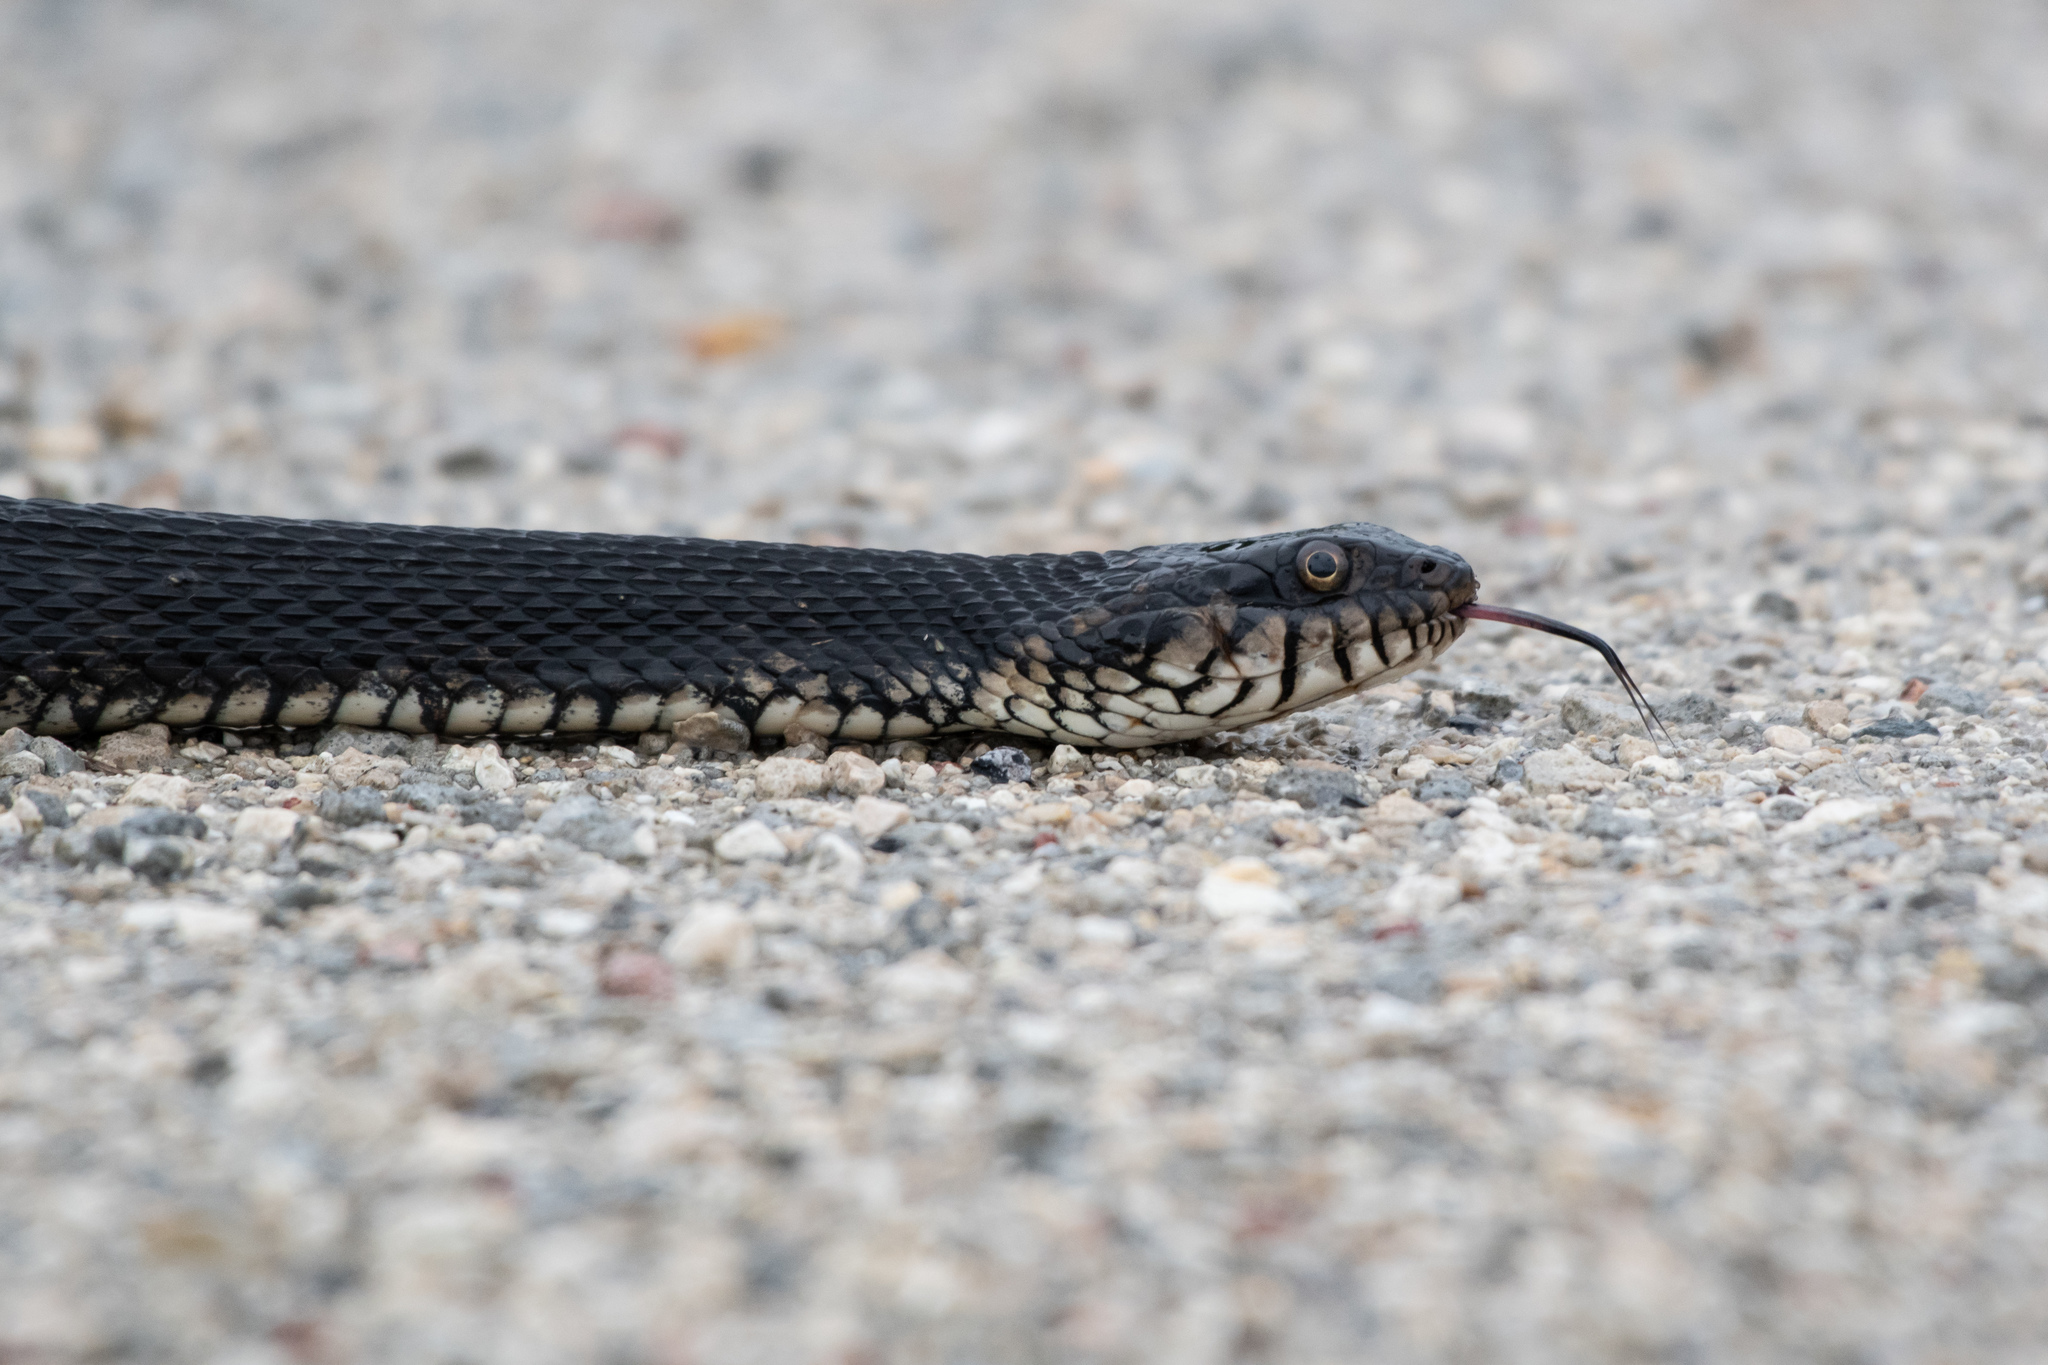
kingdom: Animalia
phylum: Chordata
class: Squamata
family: Colubridae
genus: Nerodia
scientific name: Nerodia fasciata
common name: Southern water snake
